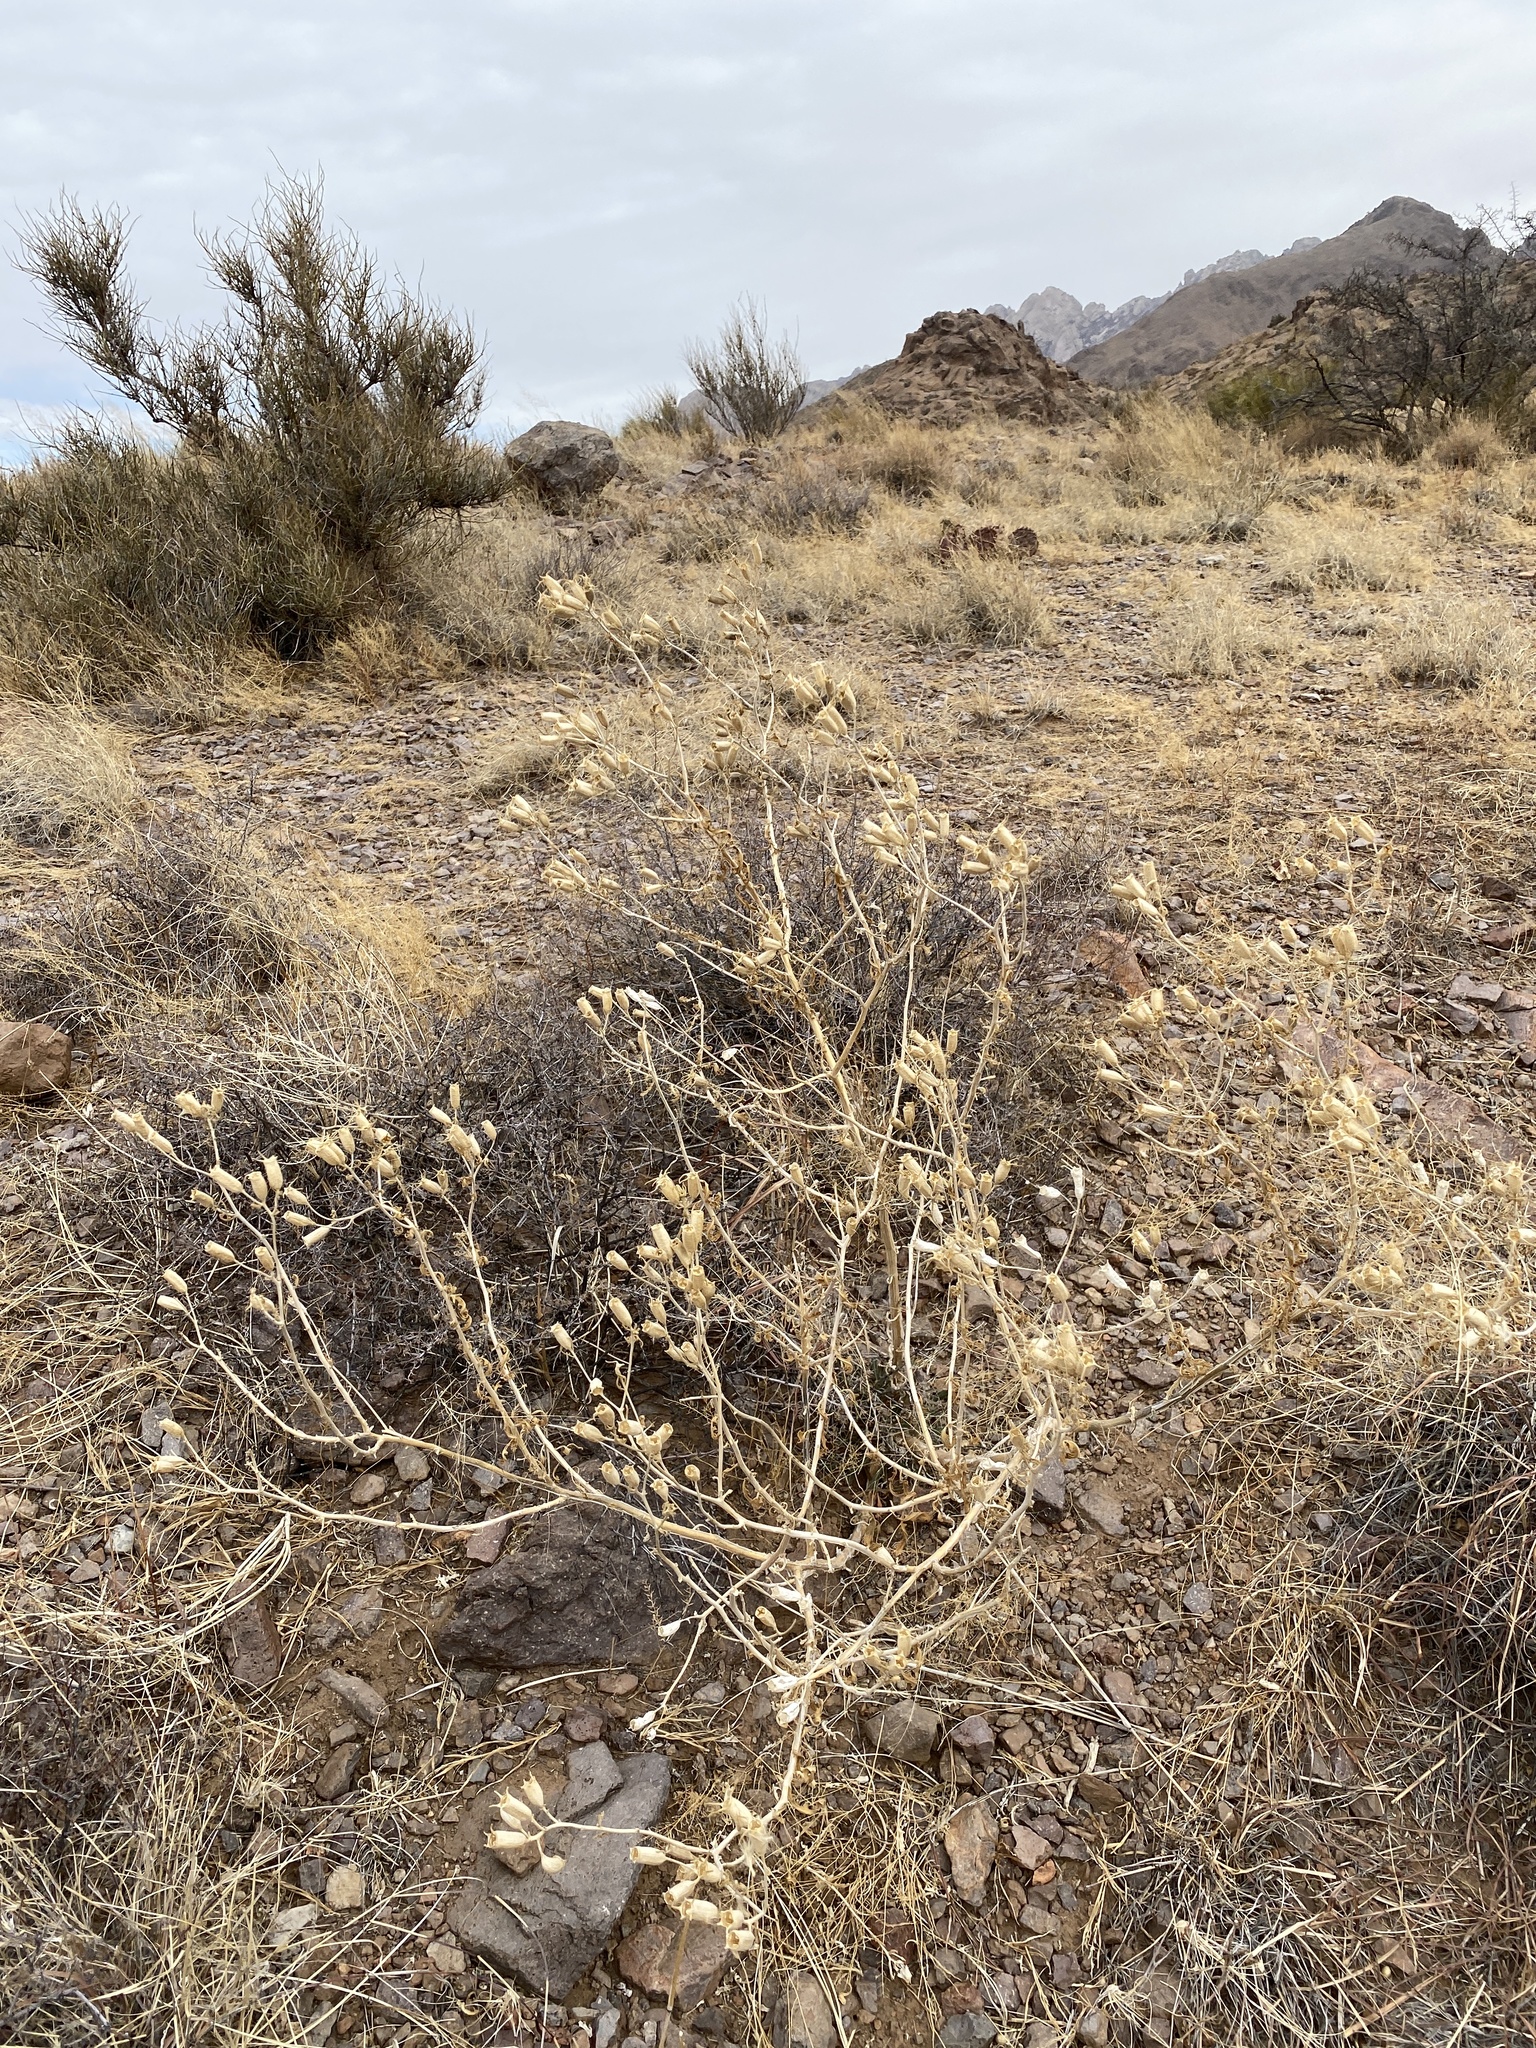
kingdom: Plantae
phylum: Tracheophyta
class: Magnoliopsida
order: Cornales
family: Loasaceae
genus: Mentzelia
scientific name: Mentzelia procera
